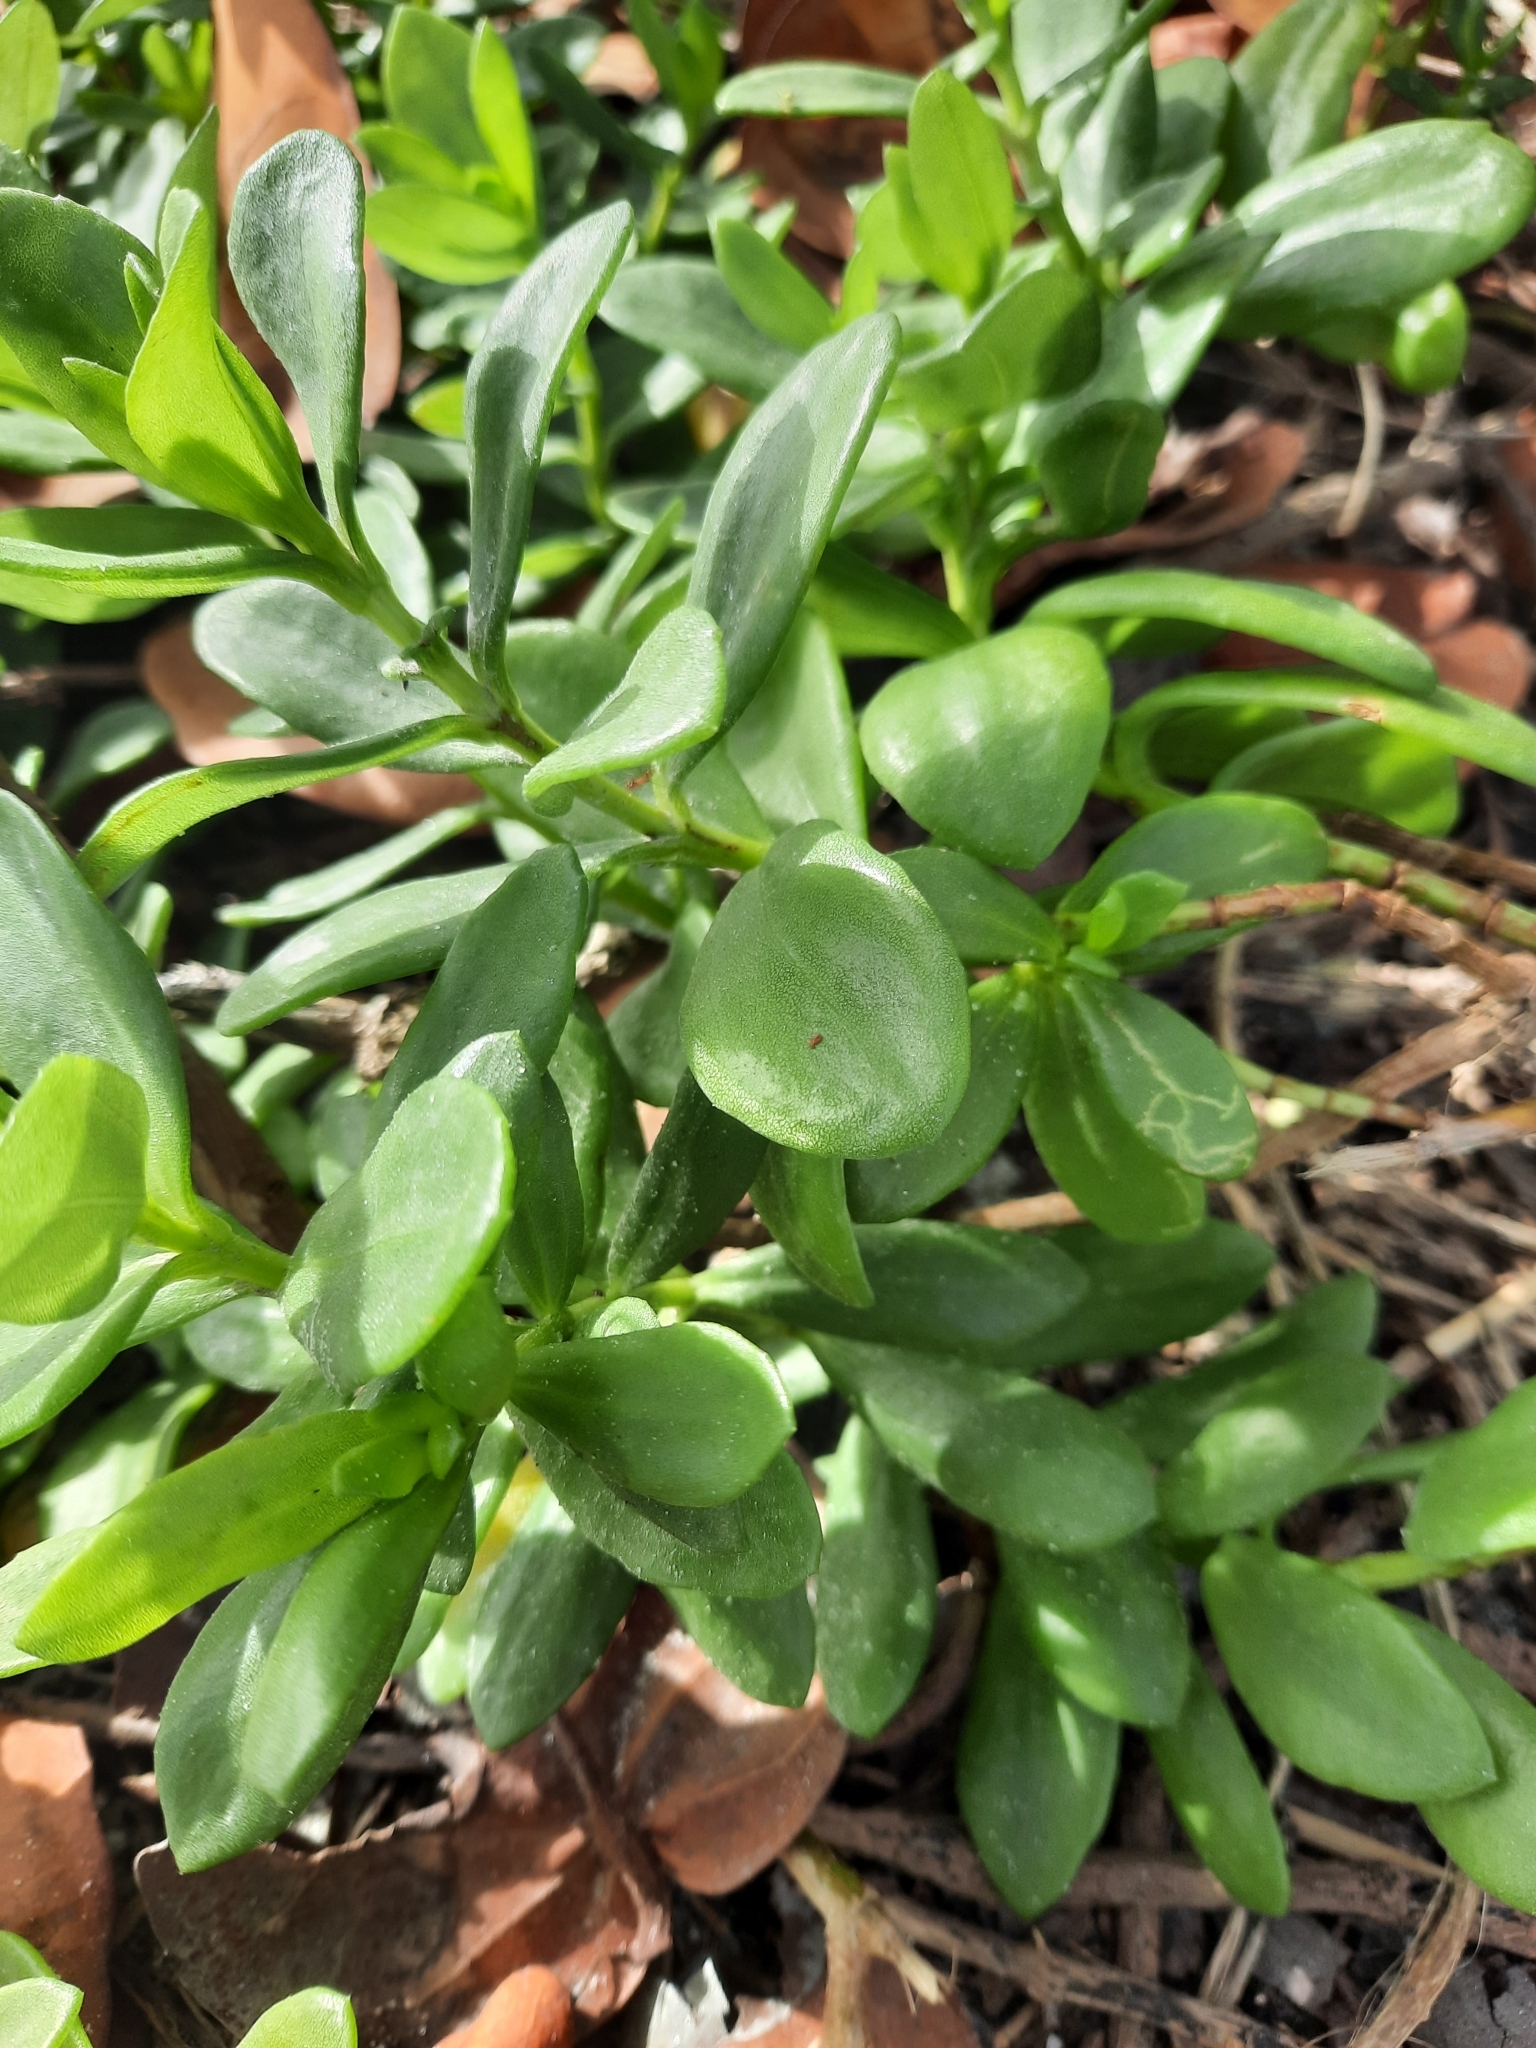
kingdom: Plantae
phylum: Tracheophyta
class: Magnoliopsida
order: Asterales
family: Asteraceae
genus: Iva
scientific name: Iva imbricata
